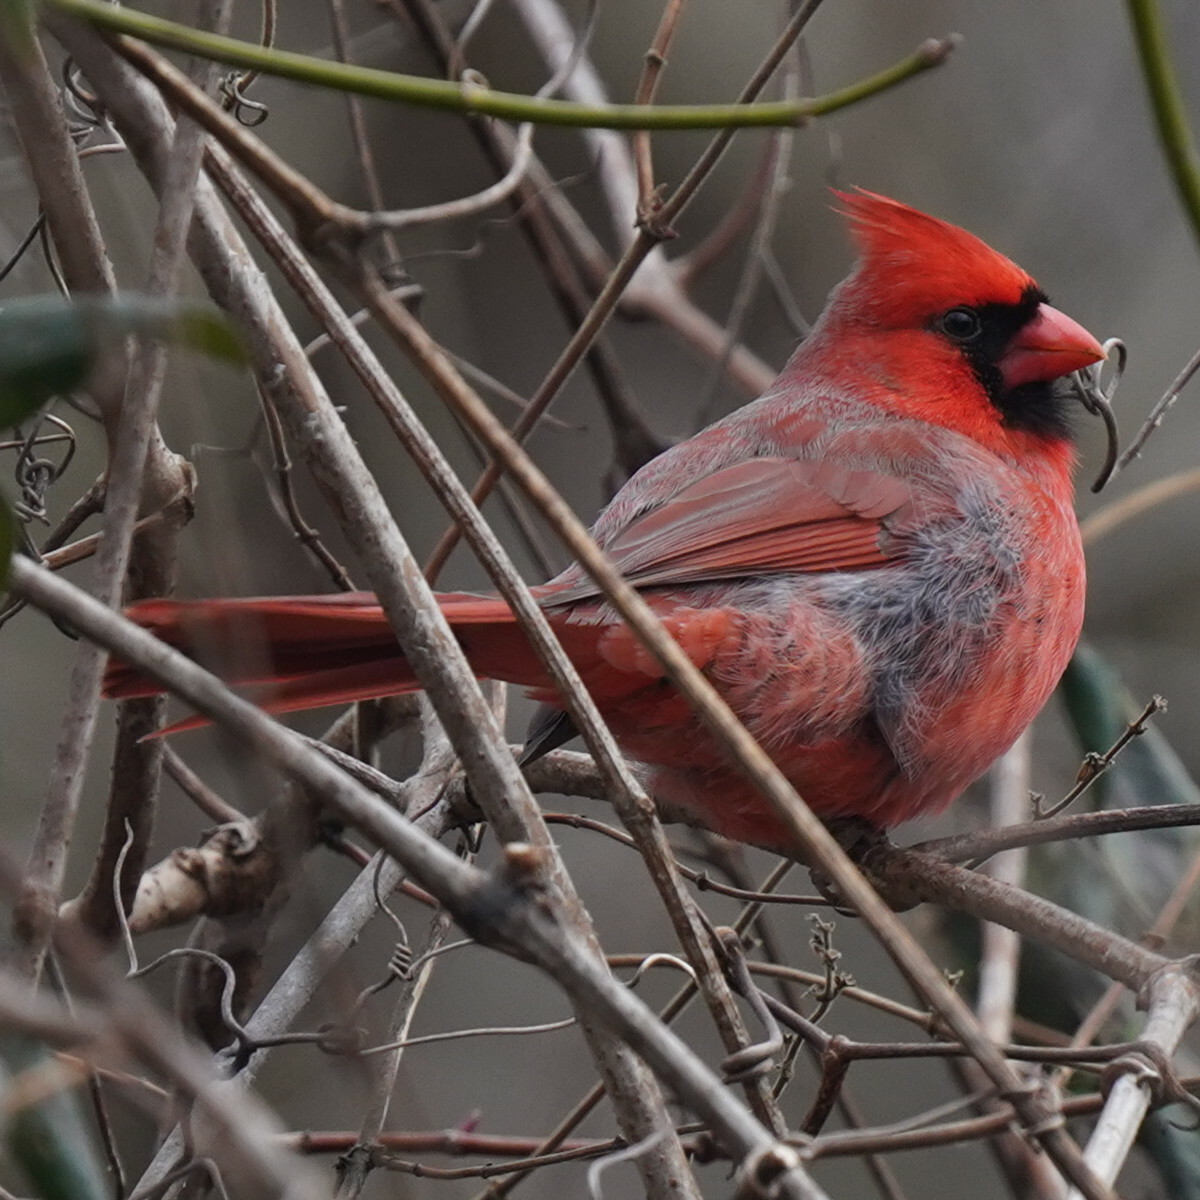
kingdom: Animalia
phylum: Chordata
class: Aves
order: Passeriformes
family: Cardinalidae
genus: Cardinalis
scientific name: Cardinalis cardinalis
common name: Northern cardinal
